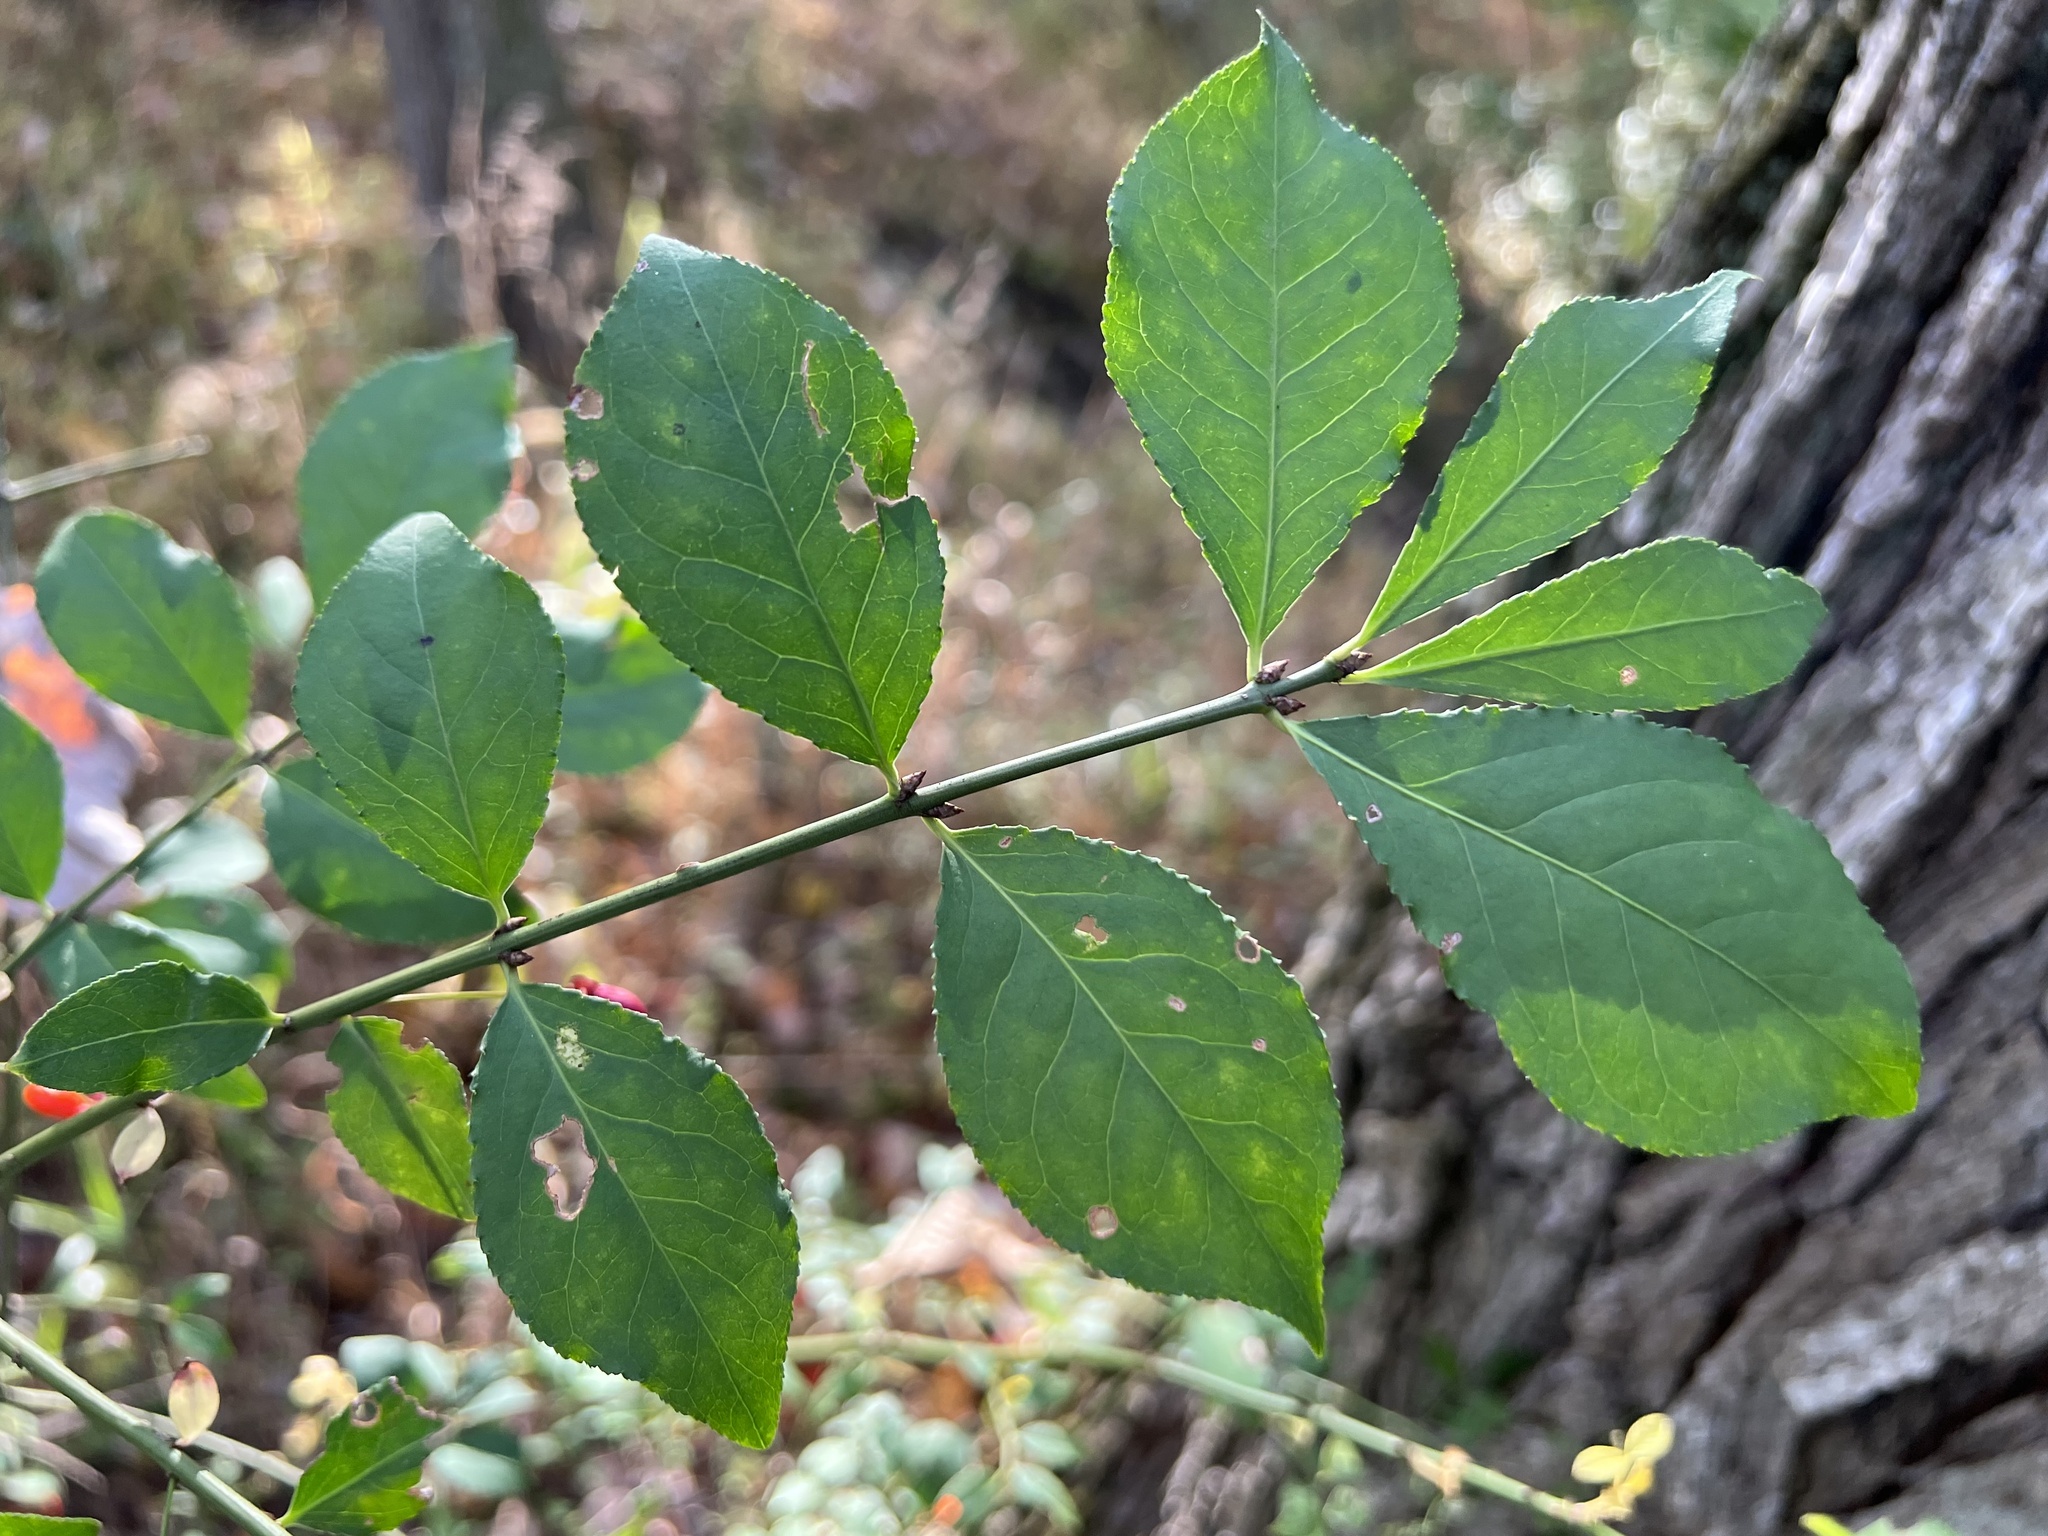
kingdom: Plantae
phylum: Tracheophyta
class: Magnoliopsida
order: Celastrales
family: Celastraceae
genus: Euonymus
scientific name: Euonymus alatus
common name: Winged euonymus
